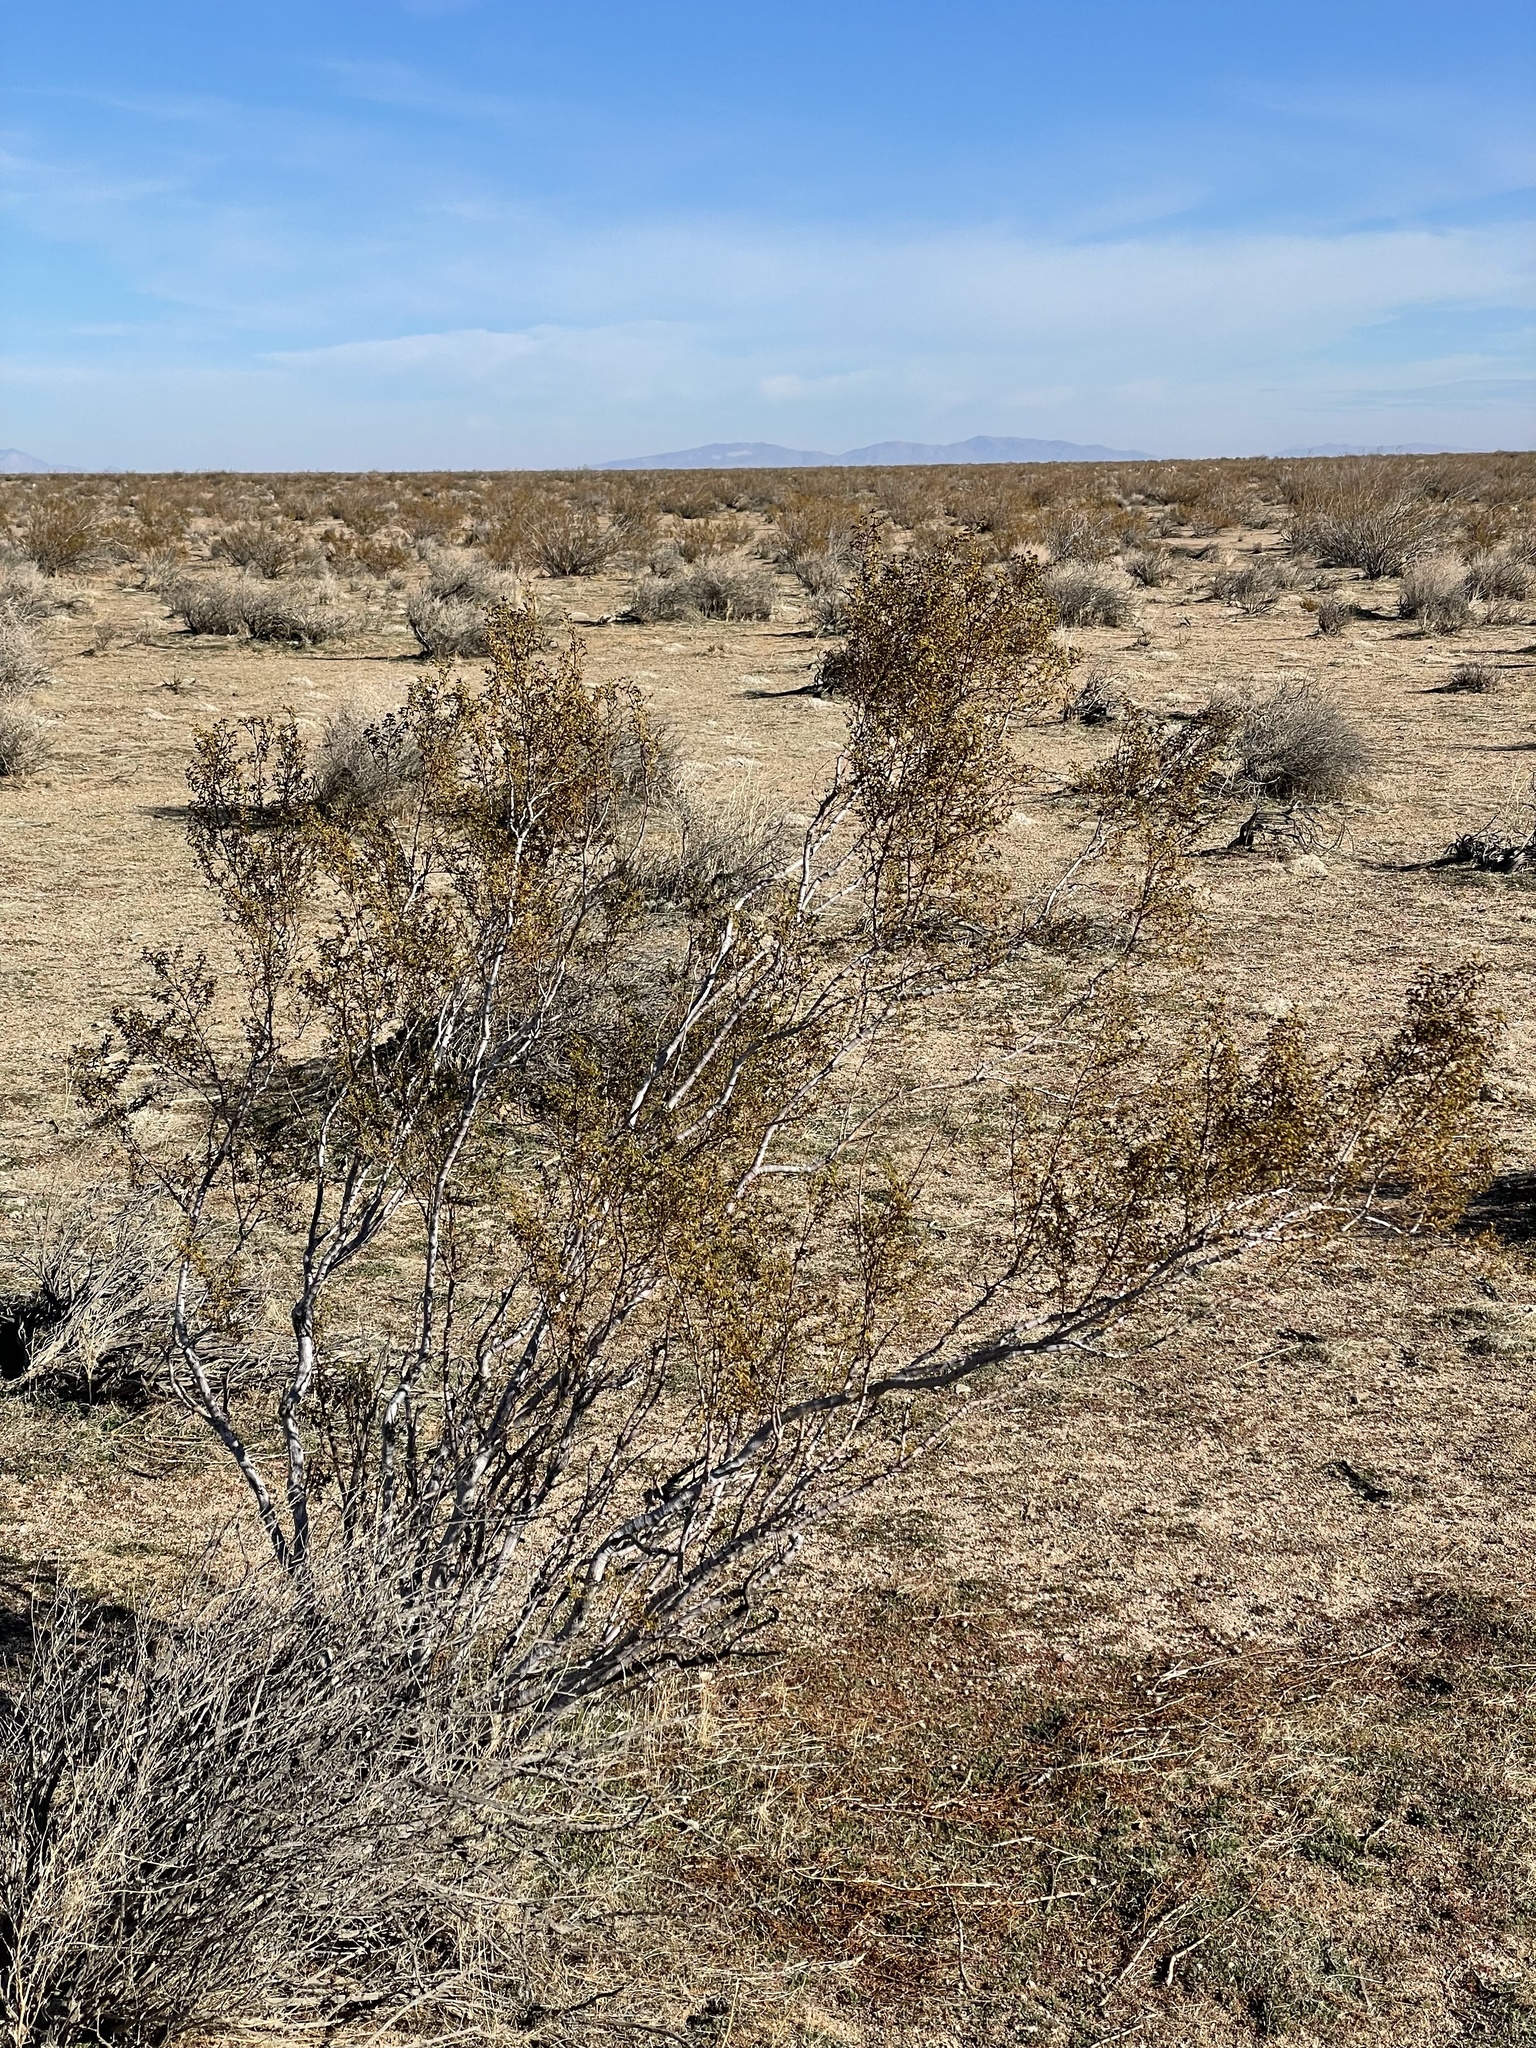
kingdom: Animalia
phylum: Arthropoda
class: Insecta
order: Diptera
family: Cecidomyiidae
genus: Asphondylia
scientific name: Asphondylia auripila
